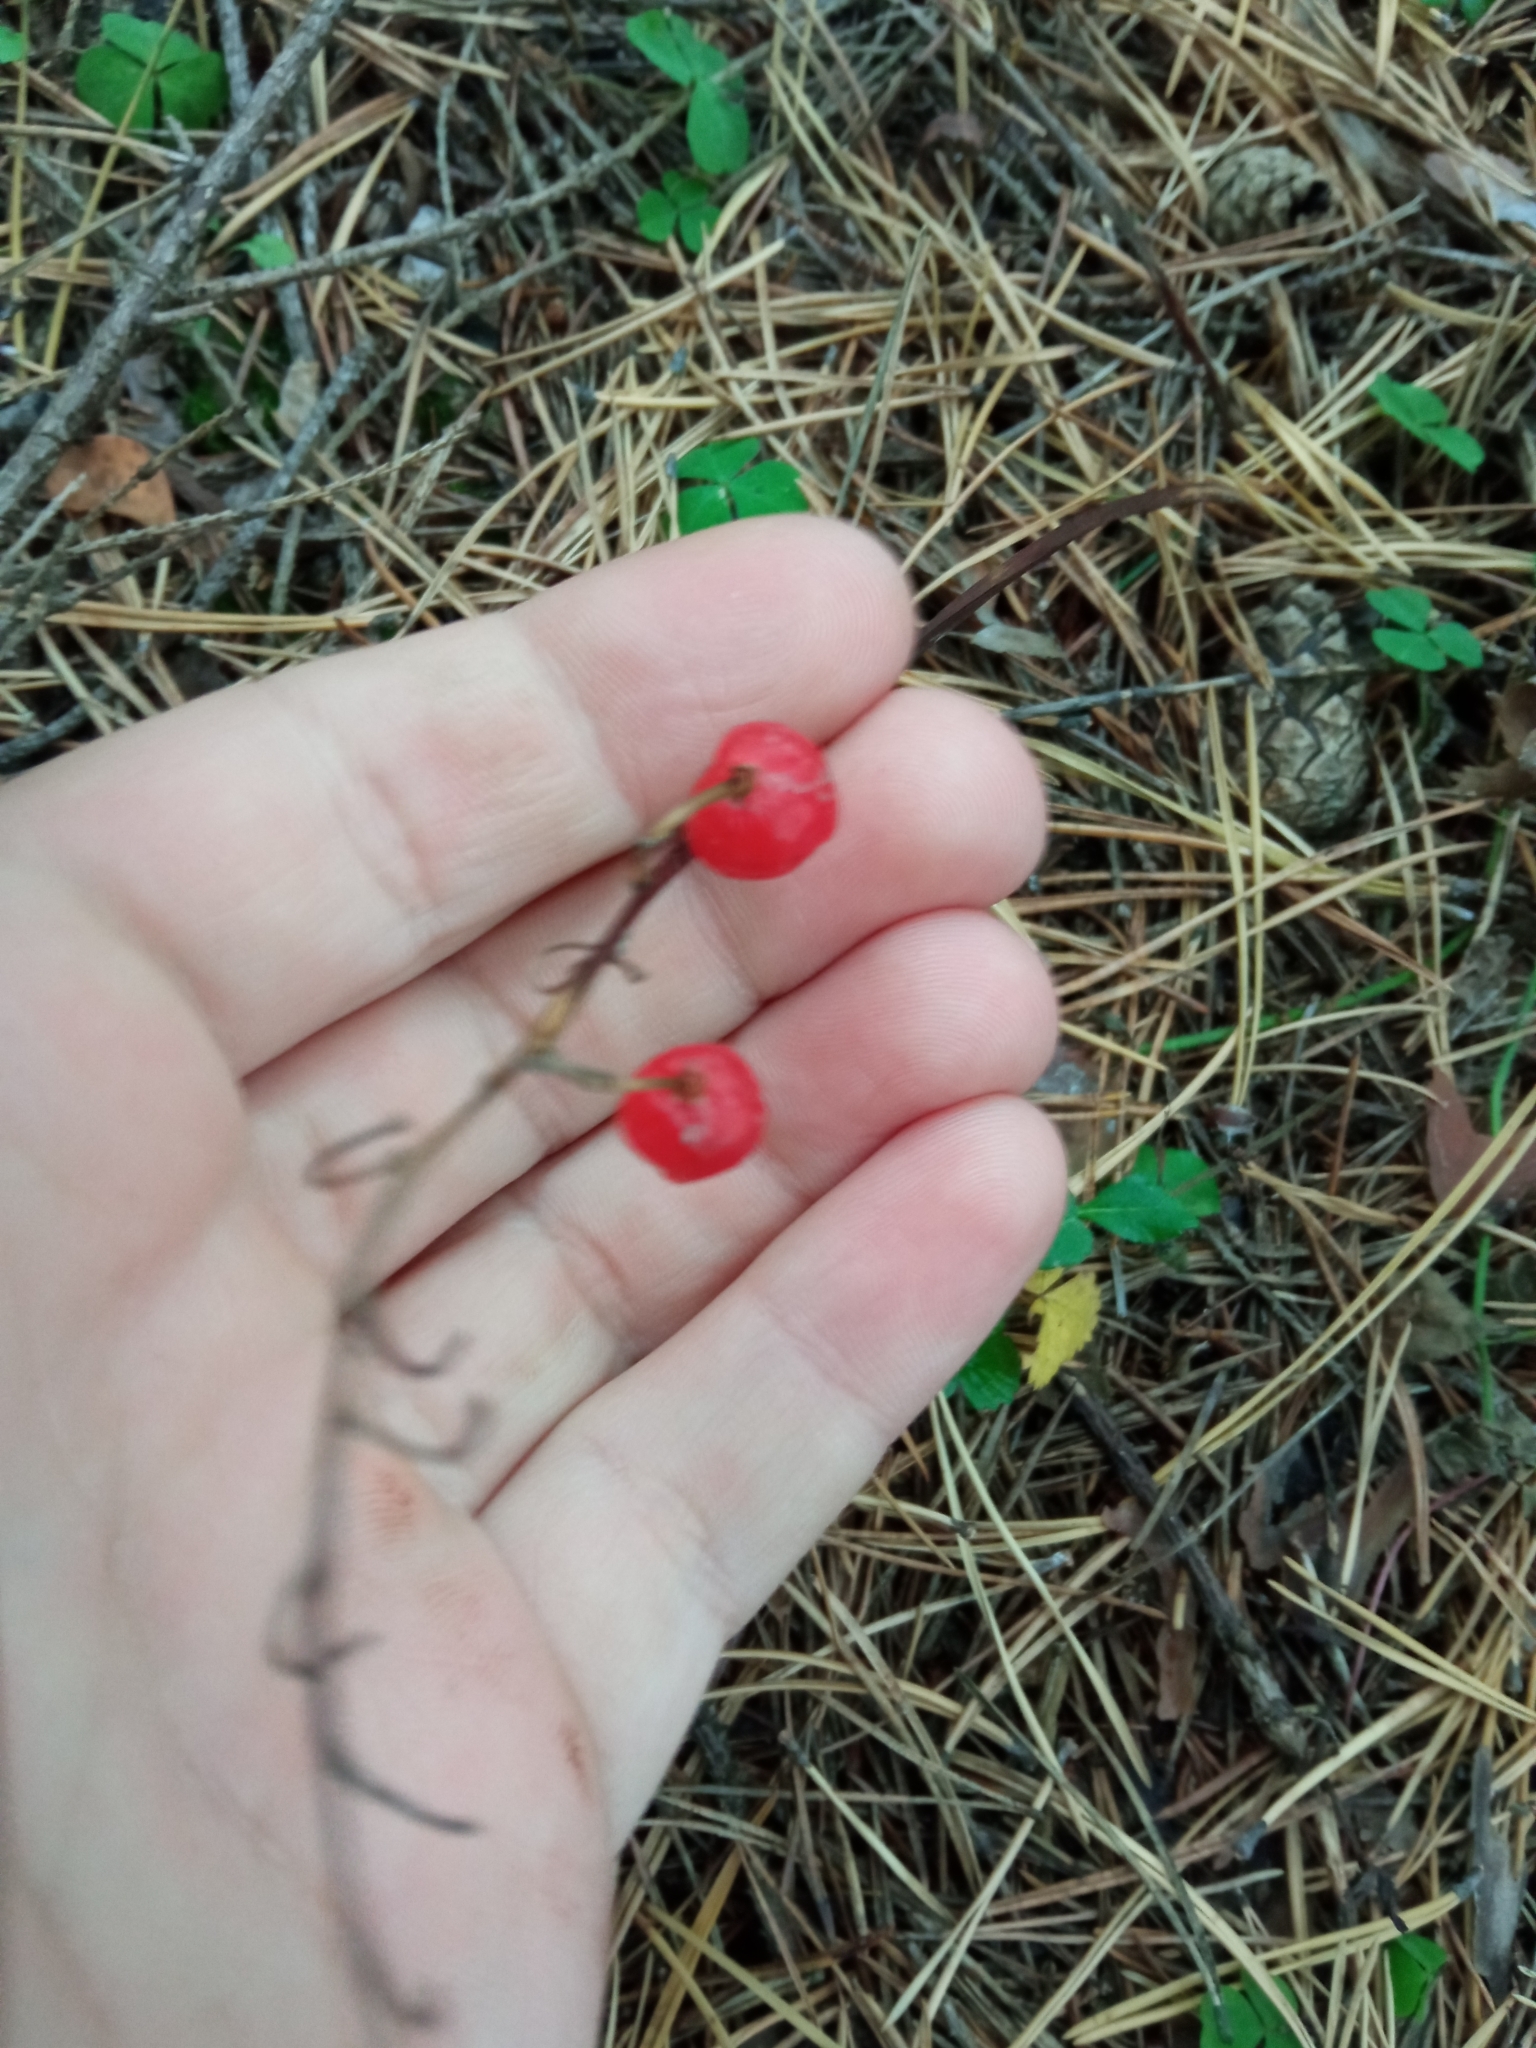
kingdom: Plantae
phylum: Tracheophyta
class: Liliopsida
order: Asparagales
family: Asparagaceae
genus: Convallaria
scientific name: Convallaria majalis
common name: Lily-of-the-valley
